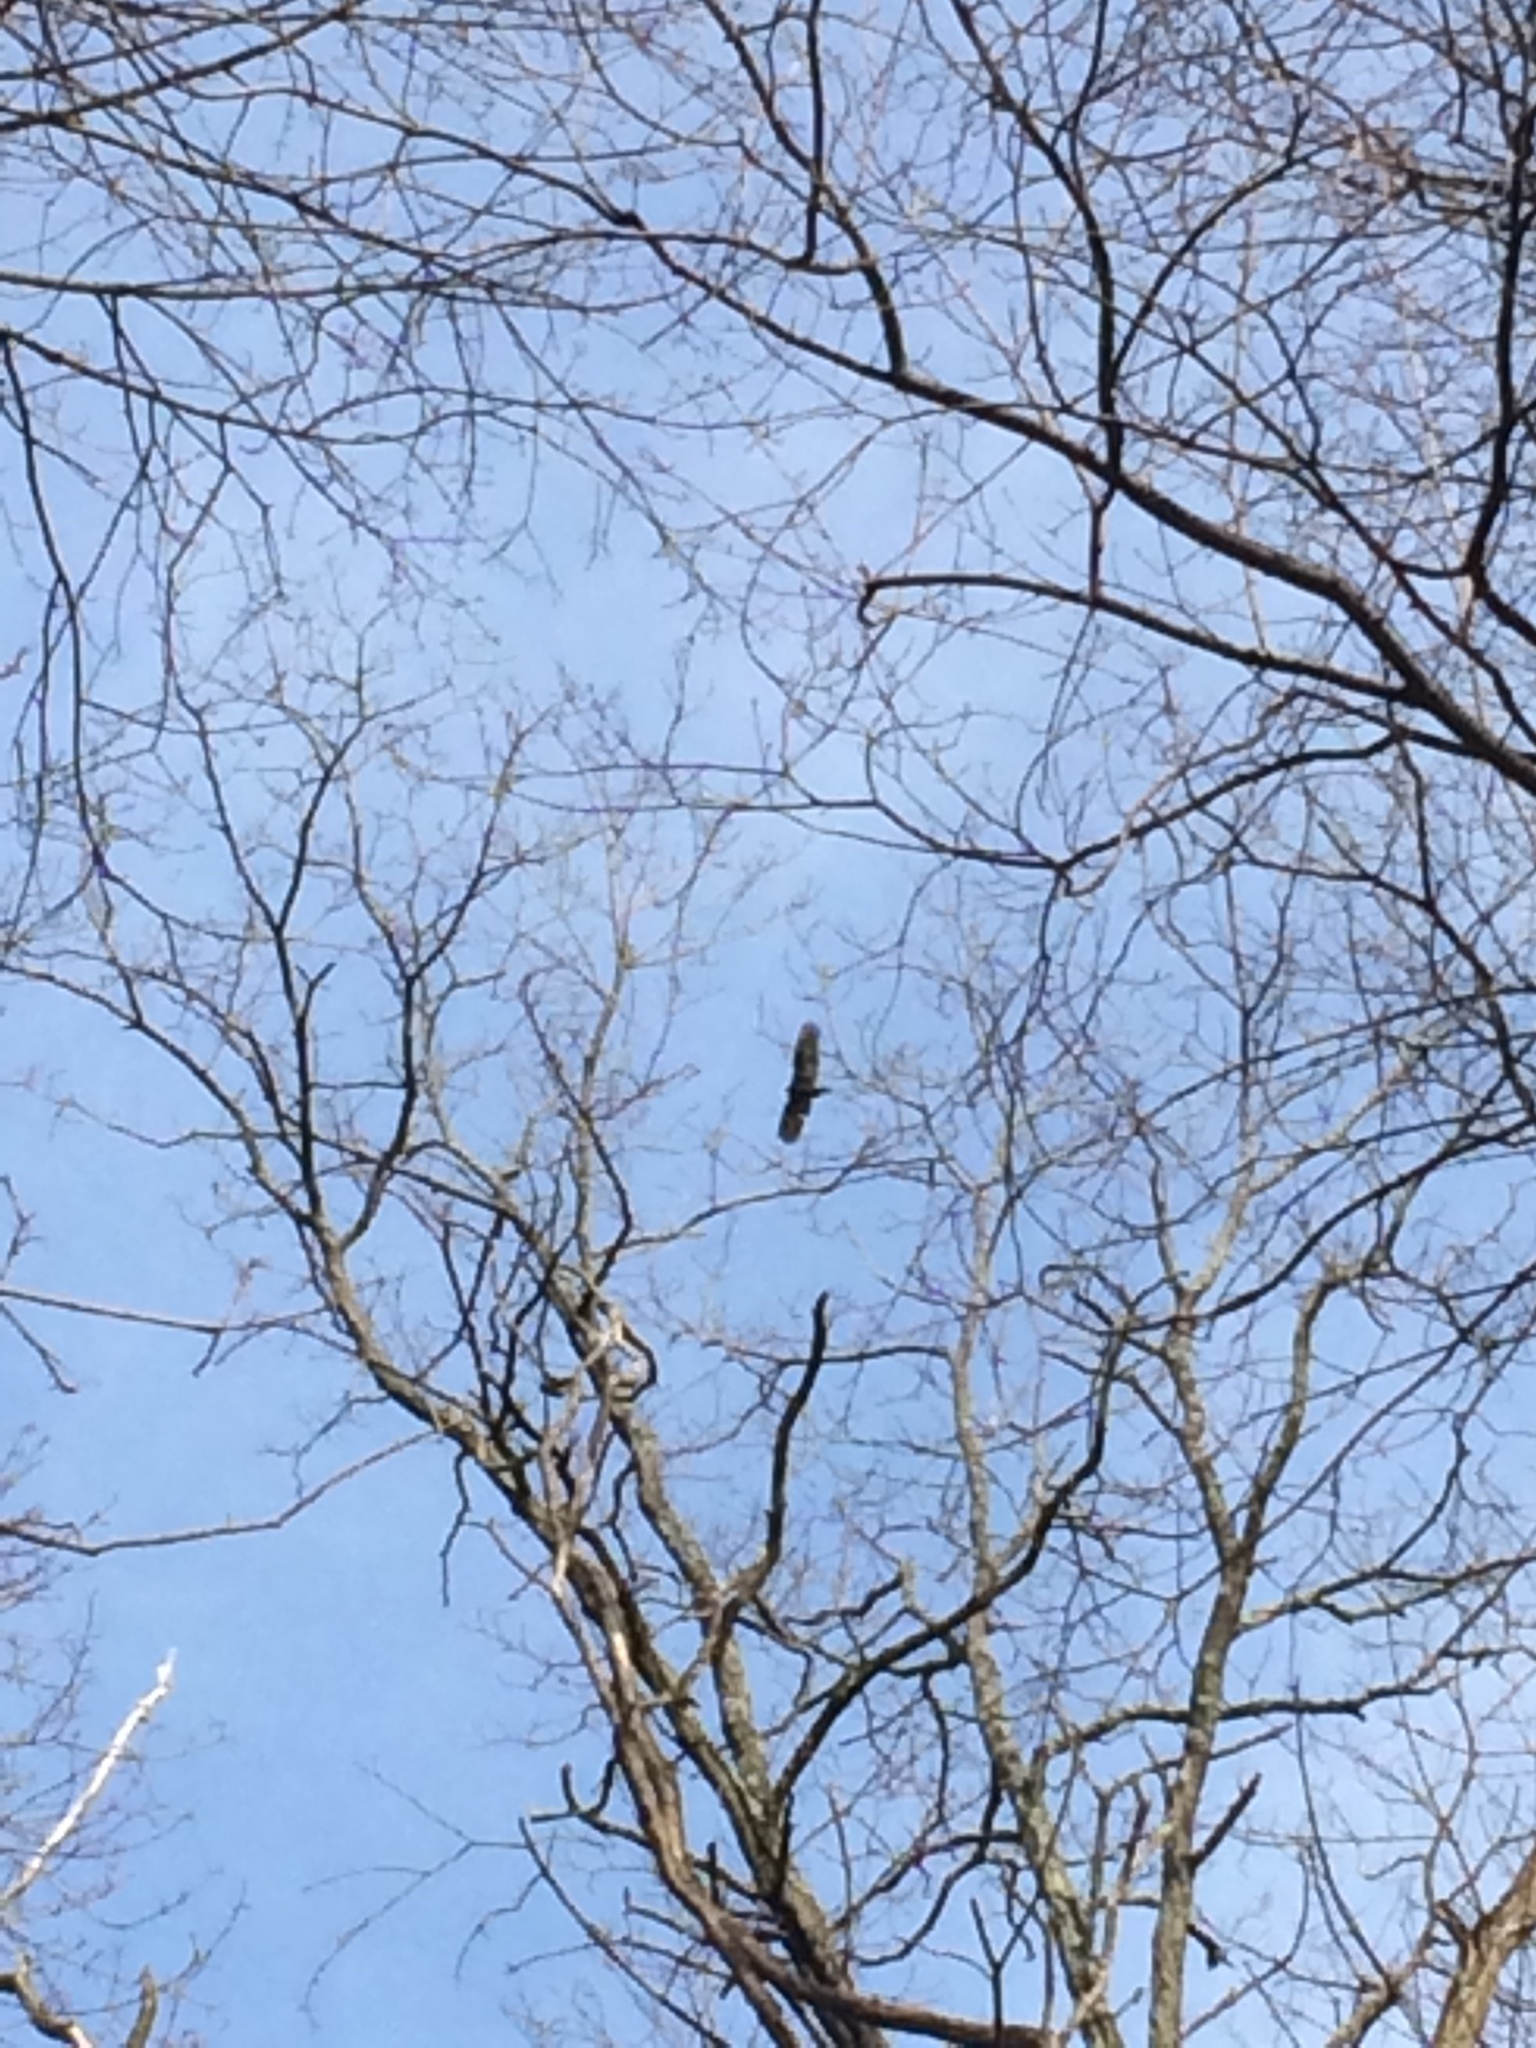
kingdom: Animalia
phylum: Chordata
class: Aves
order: Accipitriformes
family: Cathartidae
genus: Cathartes
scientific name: Cathartes aura
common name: Turkey vulture
